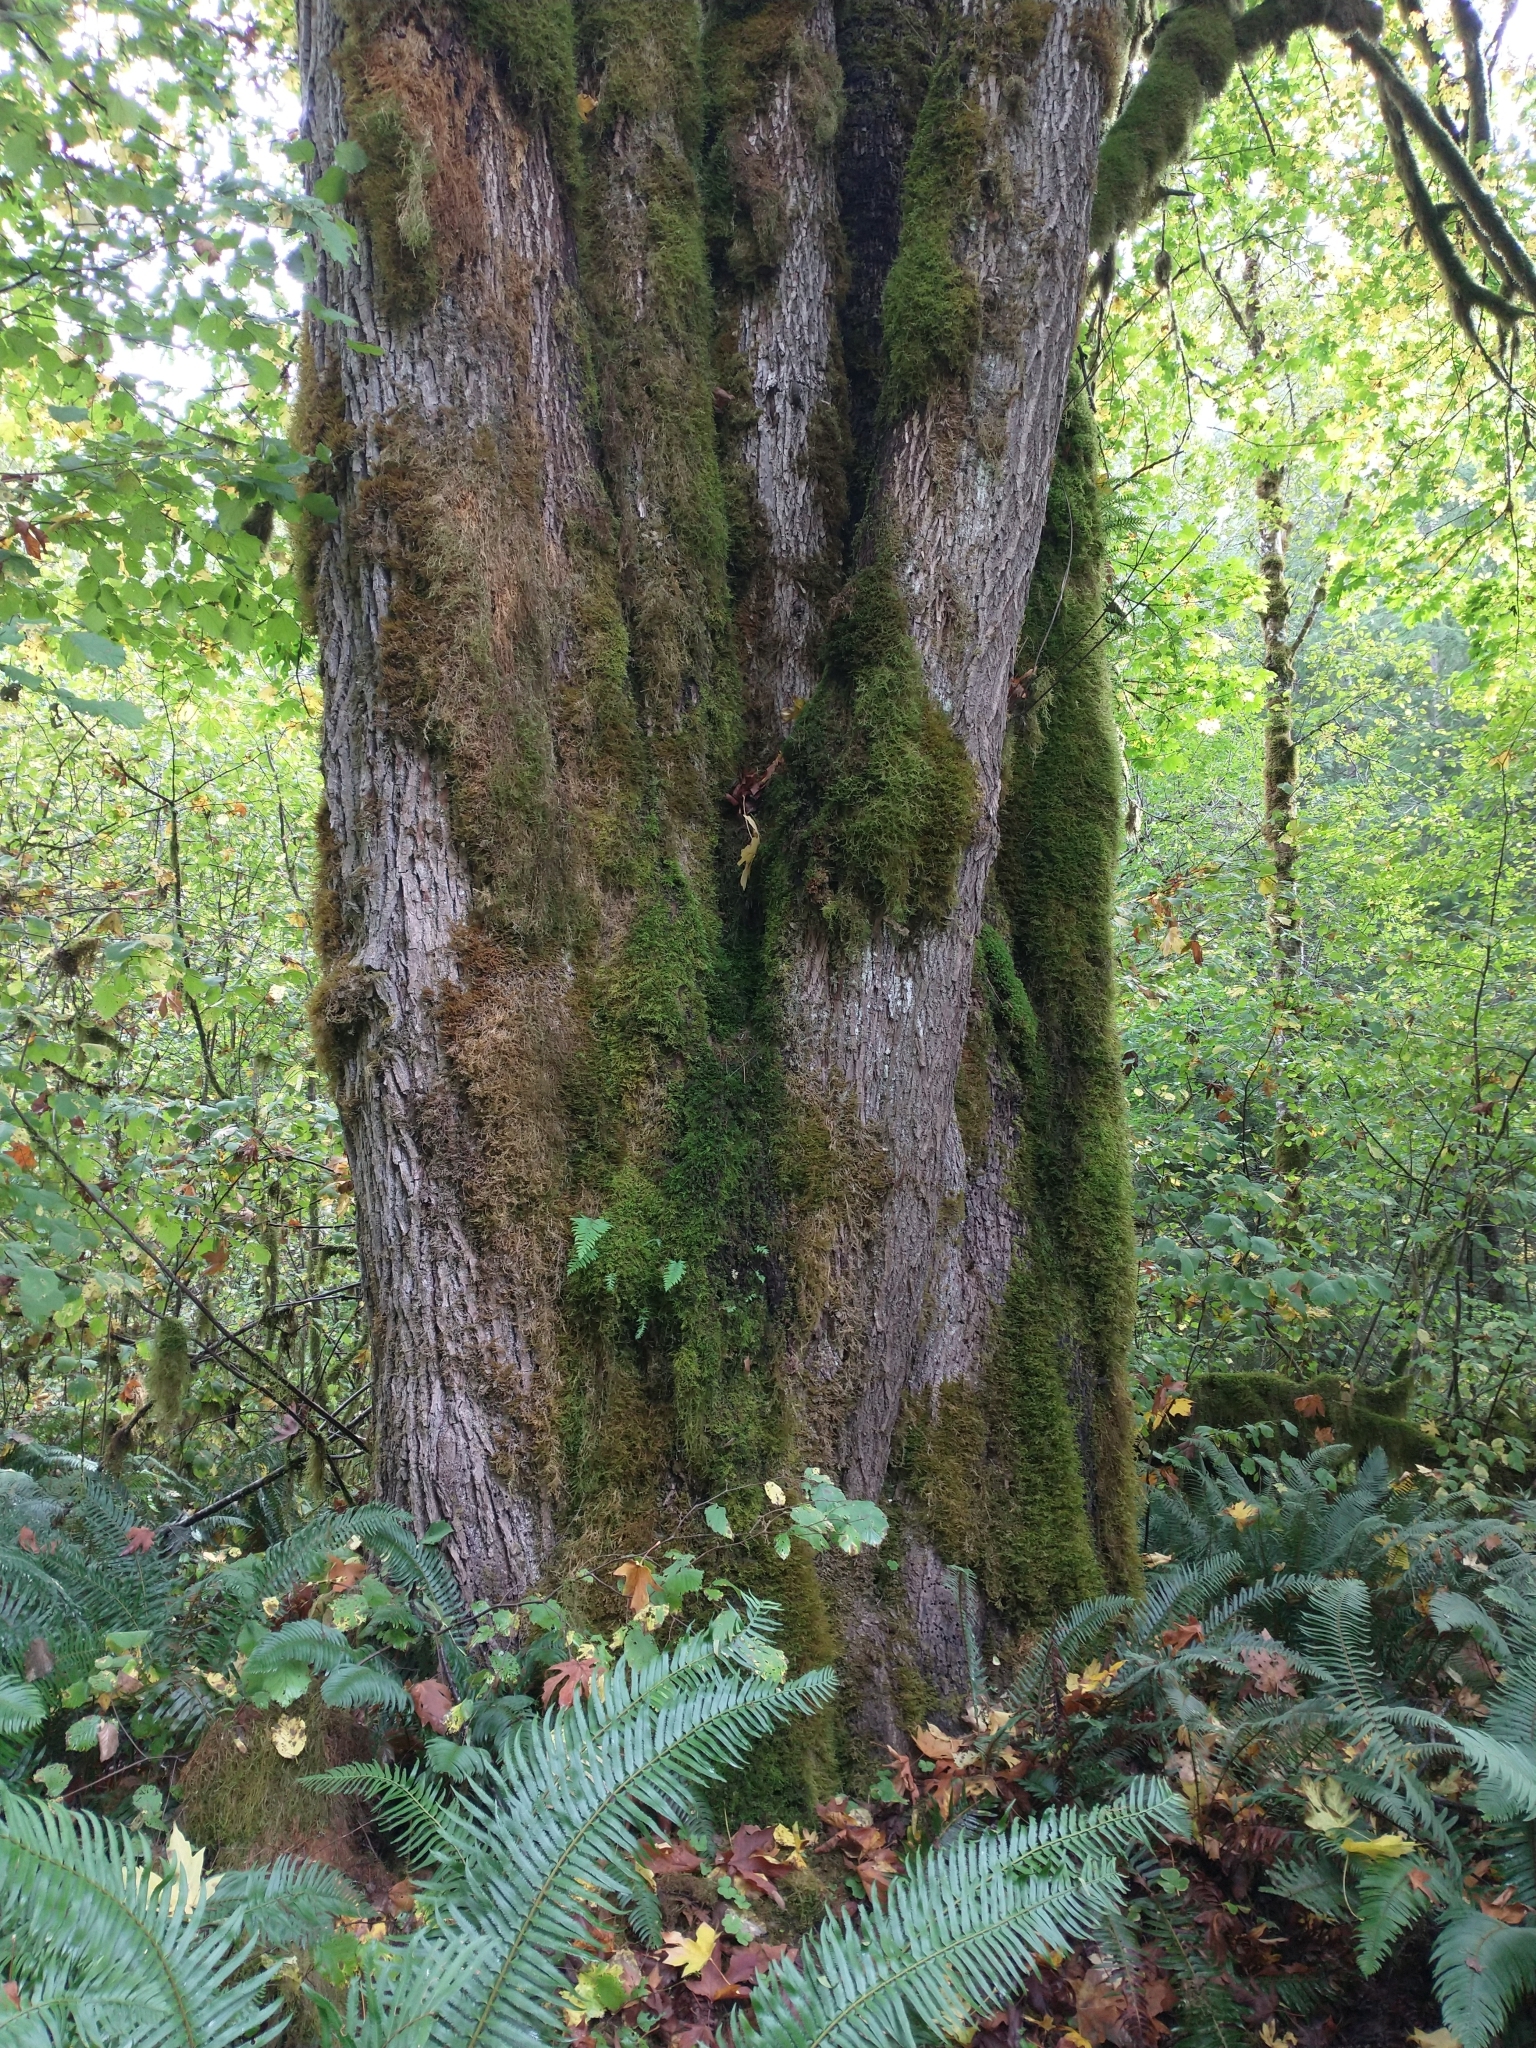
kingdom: Plantae
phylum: Tracheophyta
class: Magnoliopsida
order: Sapindales
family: Sapindaceae
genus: Acer
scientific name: Acer macrophyllum
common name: Oregon maple
